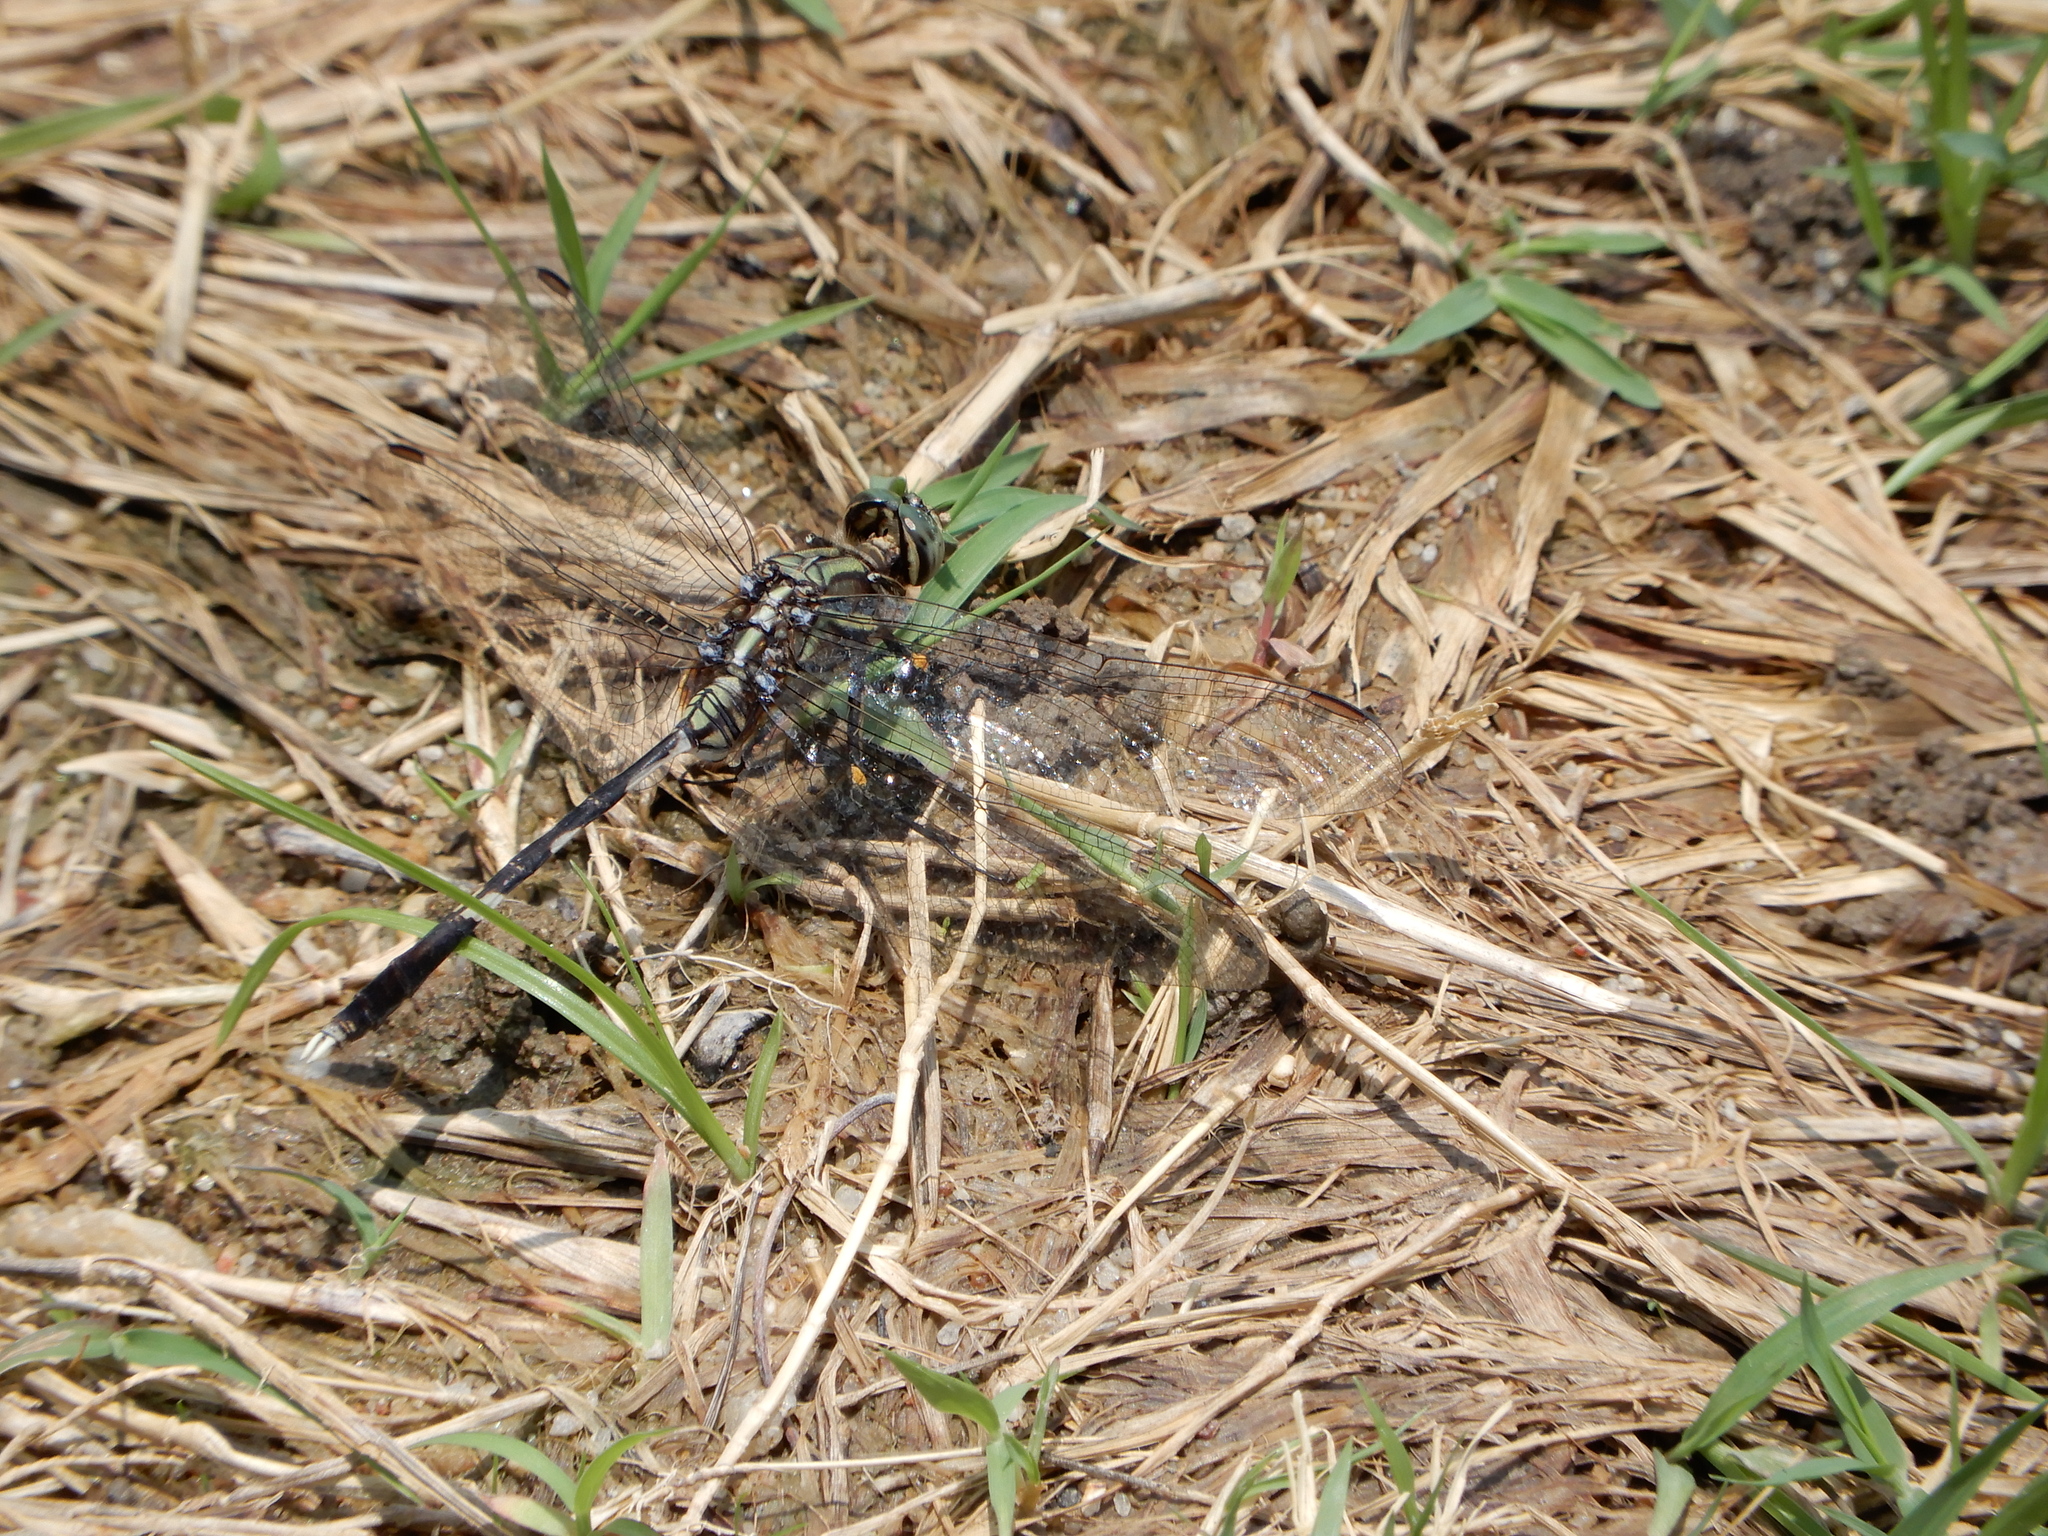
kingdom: Animalia
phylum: Arthropoda
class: Insecta
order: Odonata
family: Libellulidae
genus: Orthetrum
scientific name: Orthetrum sabina
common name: Slender skimmer
